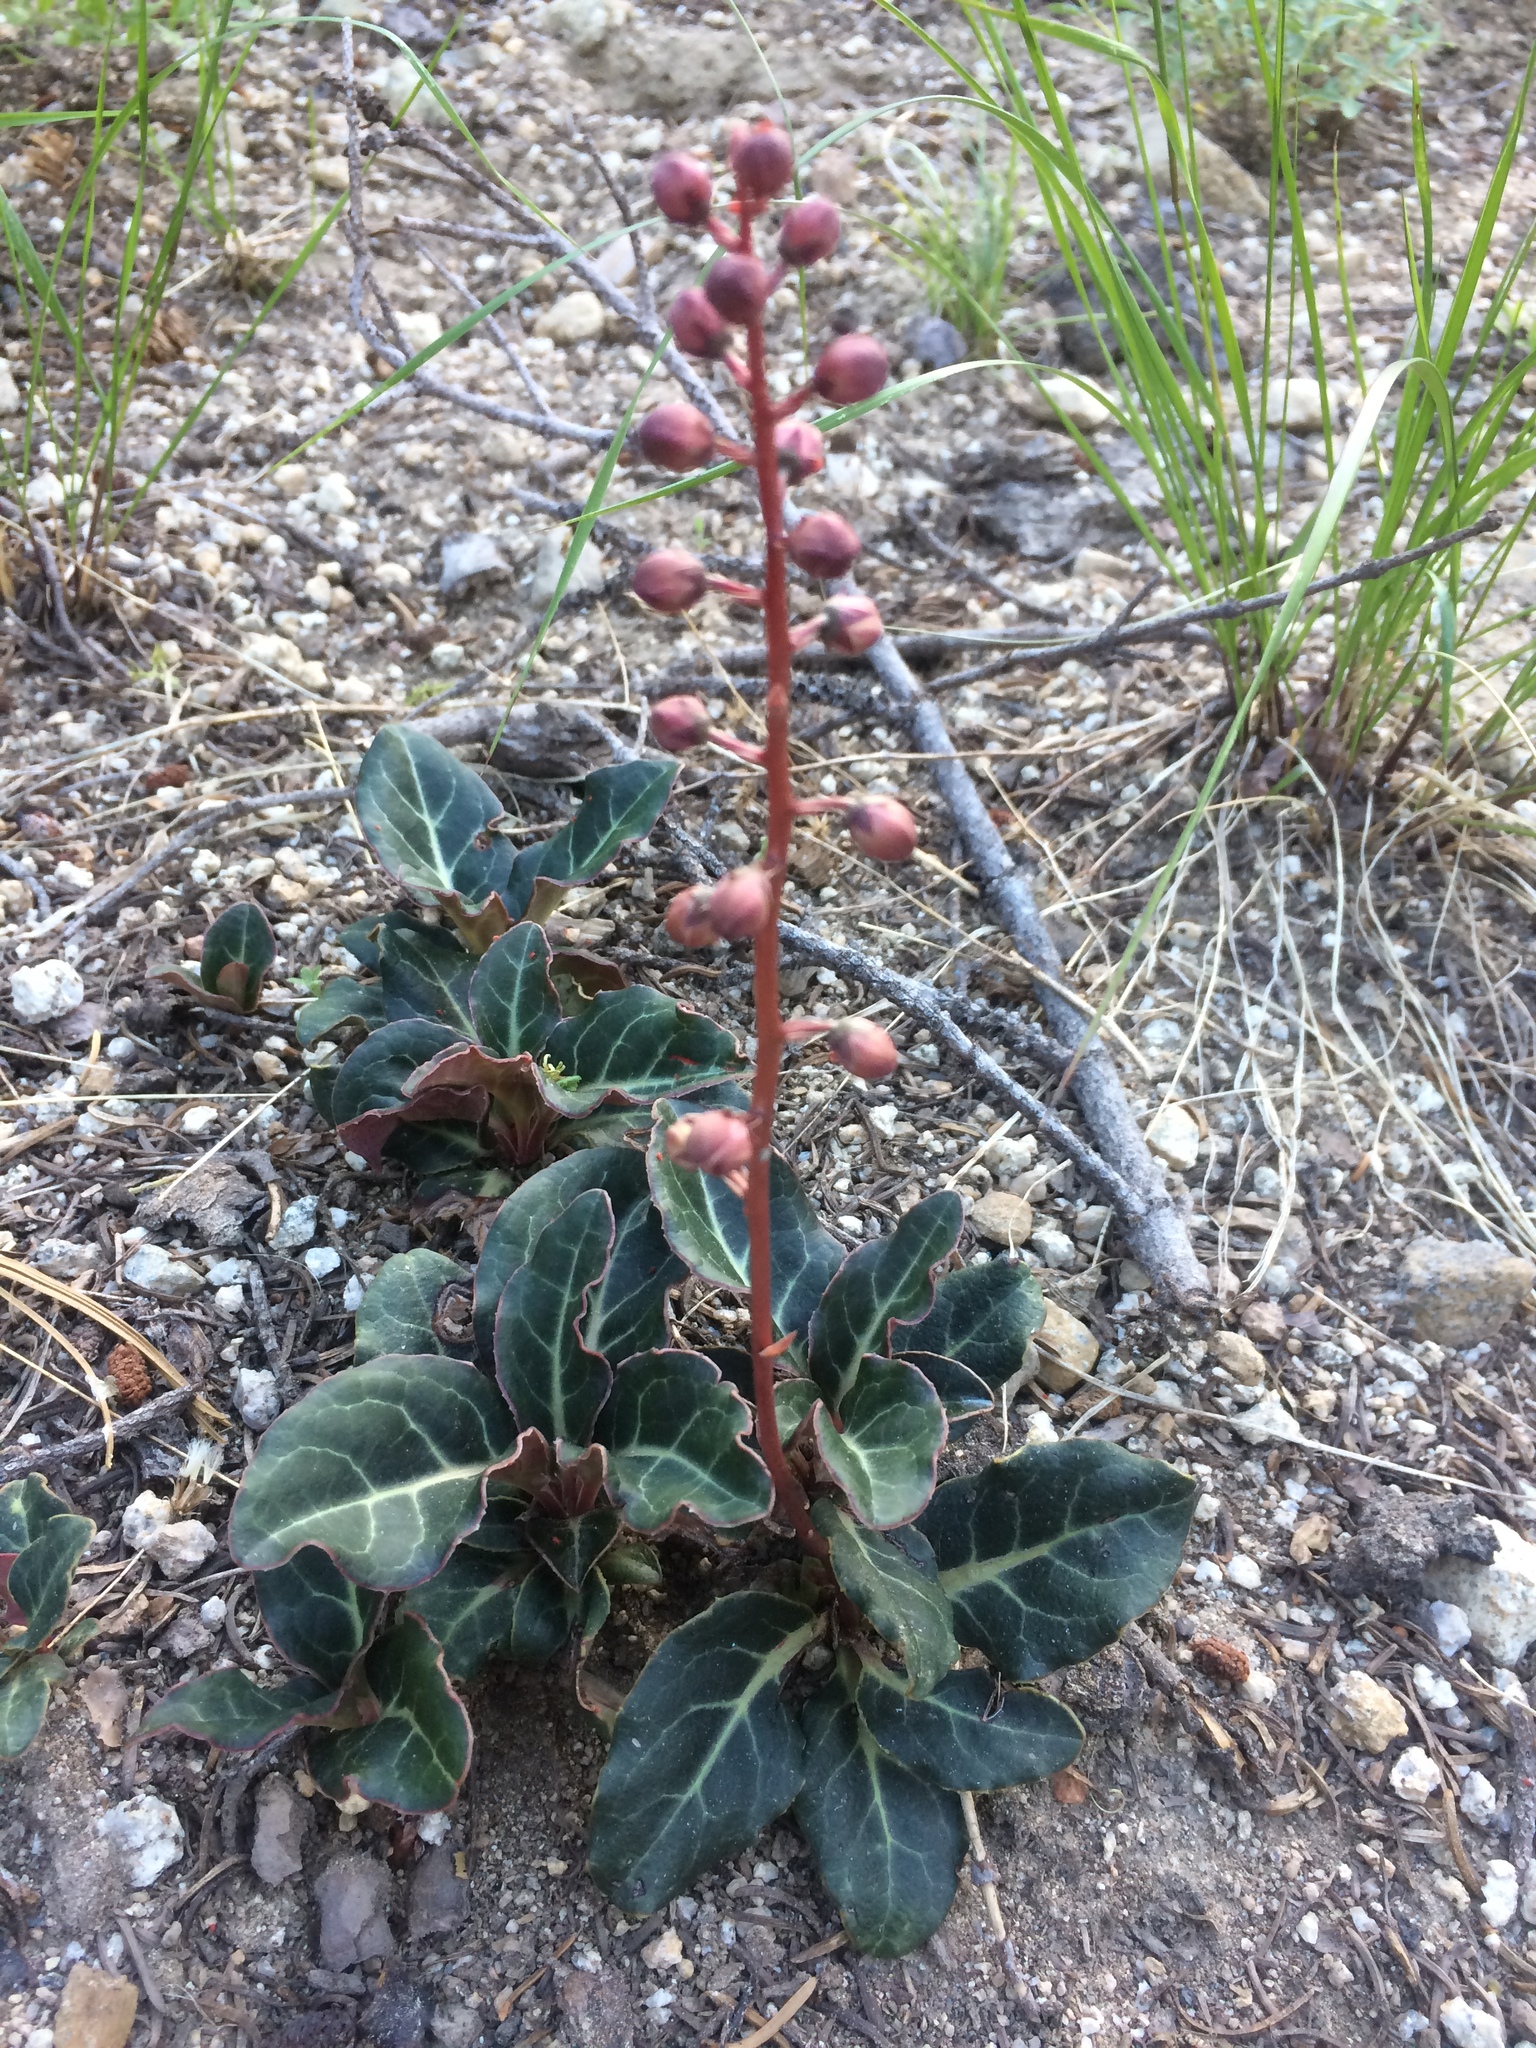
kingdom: Plantae
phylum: Tracheophyta
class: Magnoliopsida
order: Ericales
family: Ericaceae
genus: Pyrola
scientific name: Pyrola picta
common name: White-vein wintergreen
